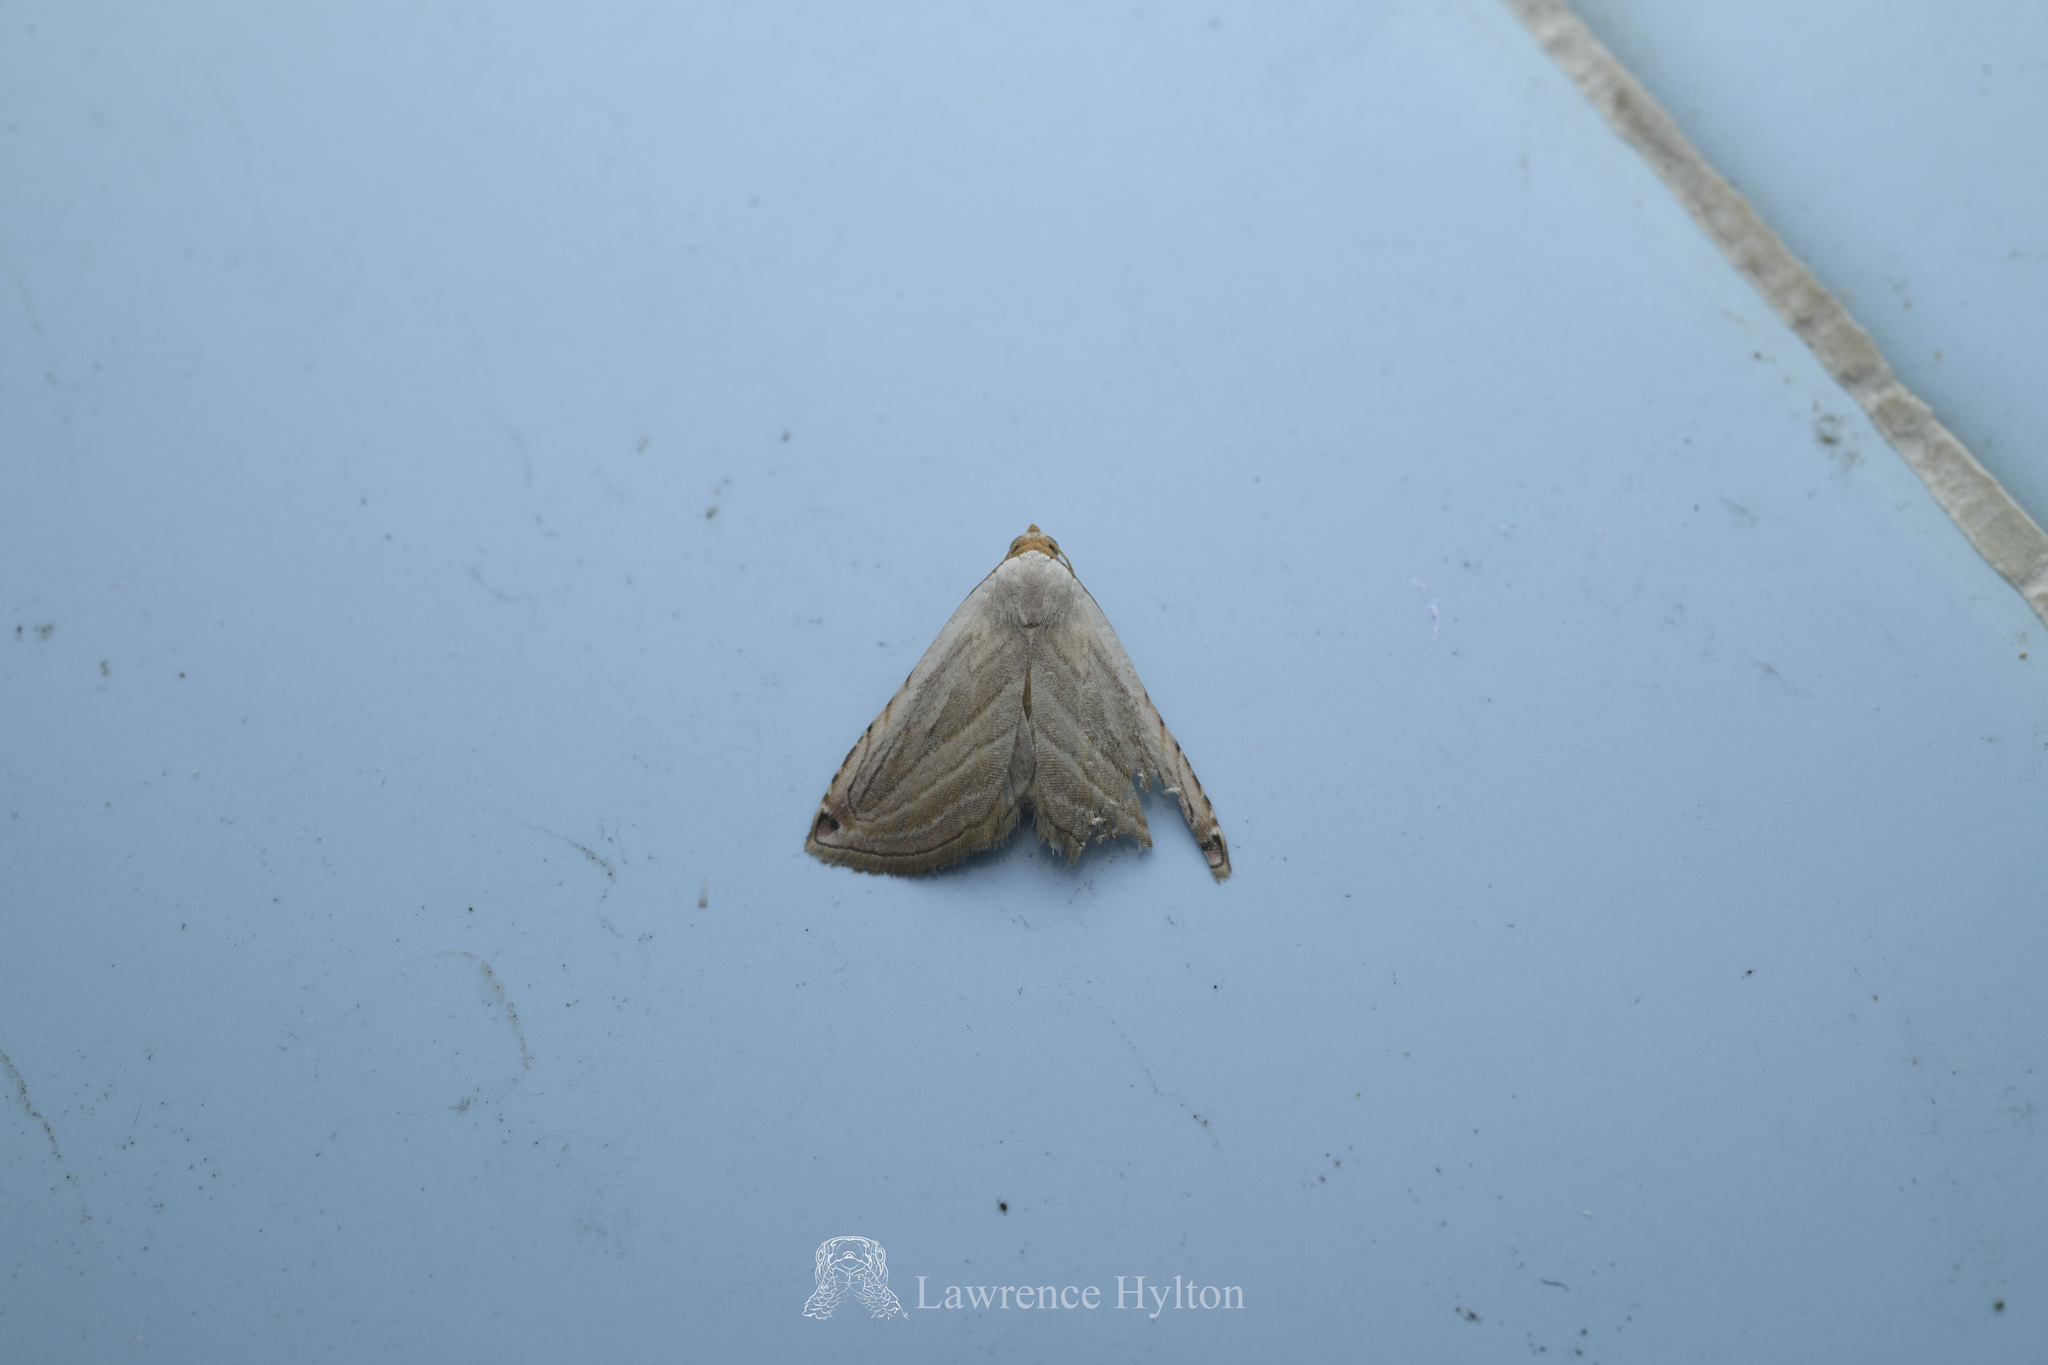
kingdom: Animalia
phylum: Arthropoda
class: Insecta
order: Lepidoptera
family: Noctuidae
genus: Honeyania
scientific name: Honeyania ragusana
